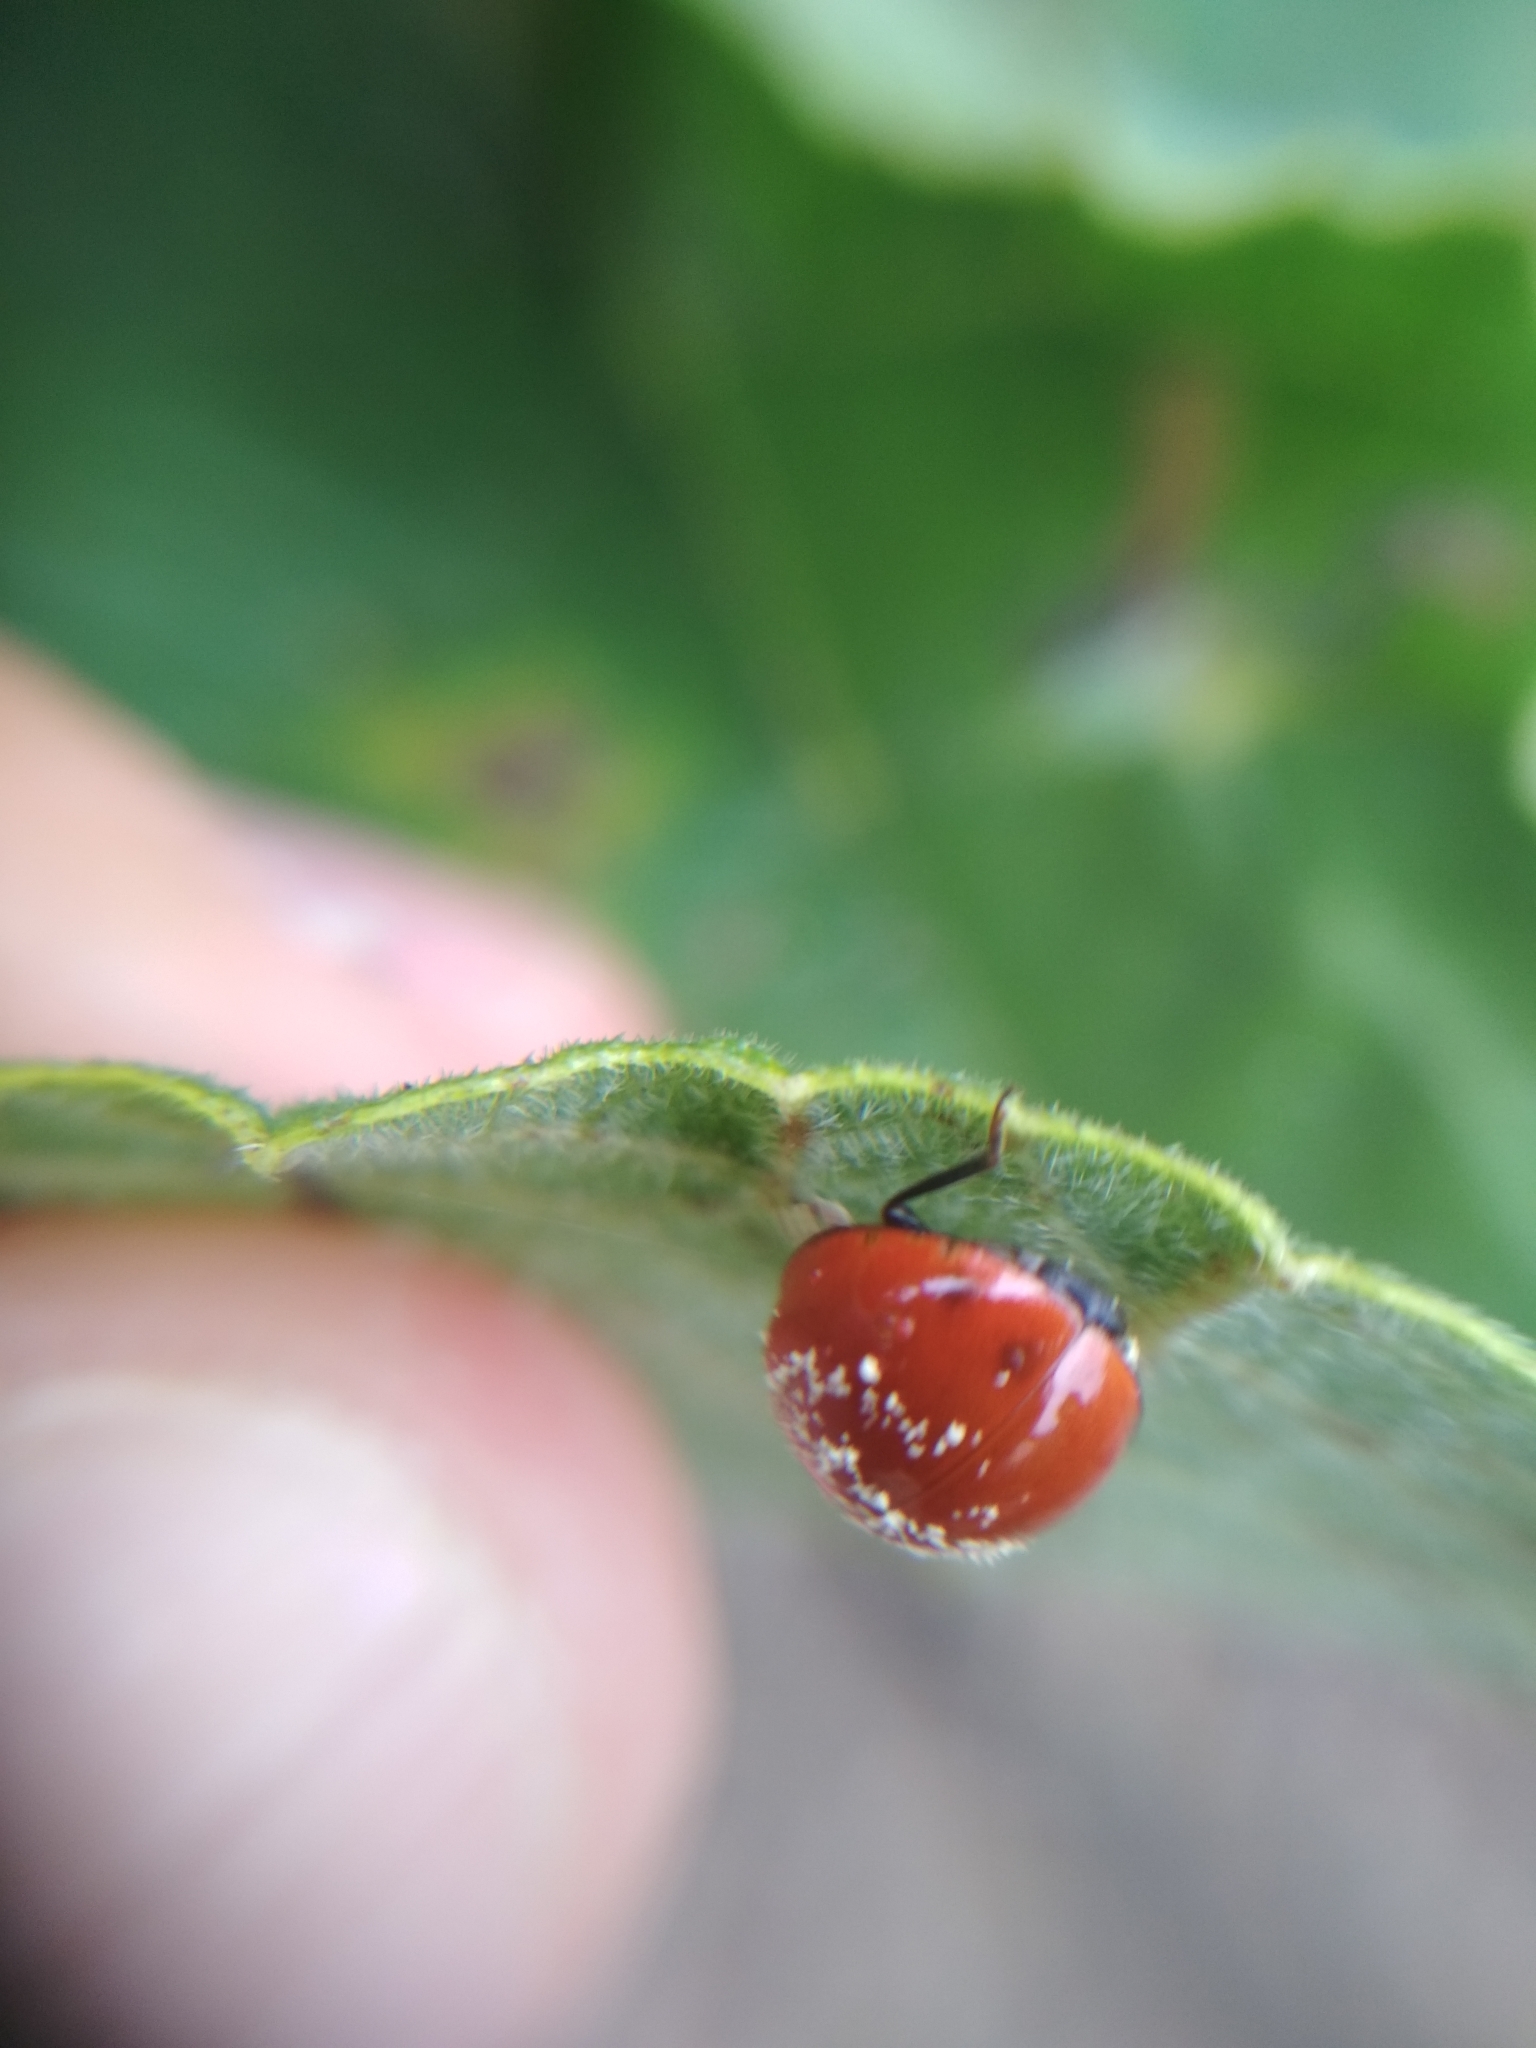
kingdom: Animalia
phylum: Arthropoda
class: Insecta
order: Coleoptera
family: Coccinellidae
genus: Cycloneda
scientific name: Cycloneda sanguinea
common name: Ladybird beetle
